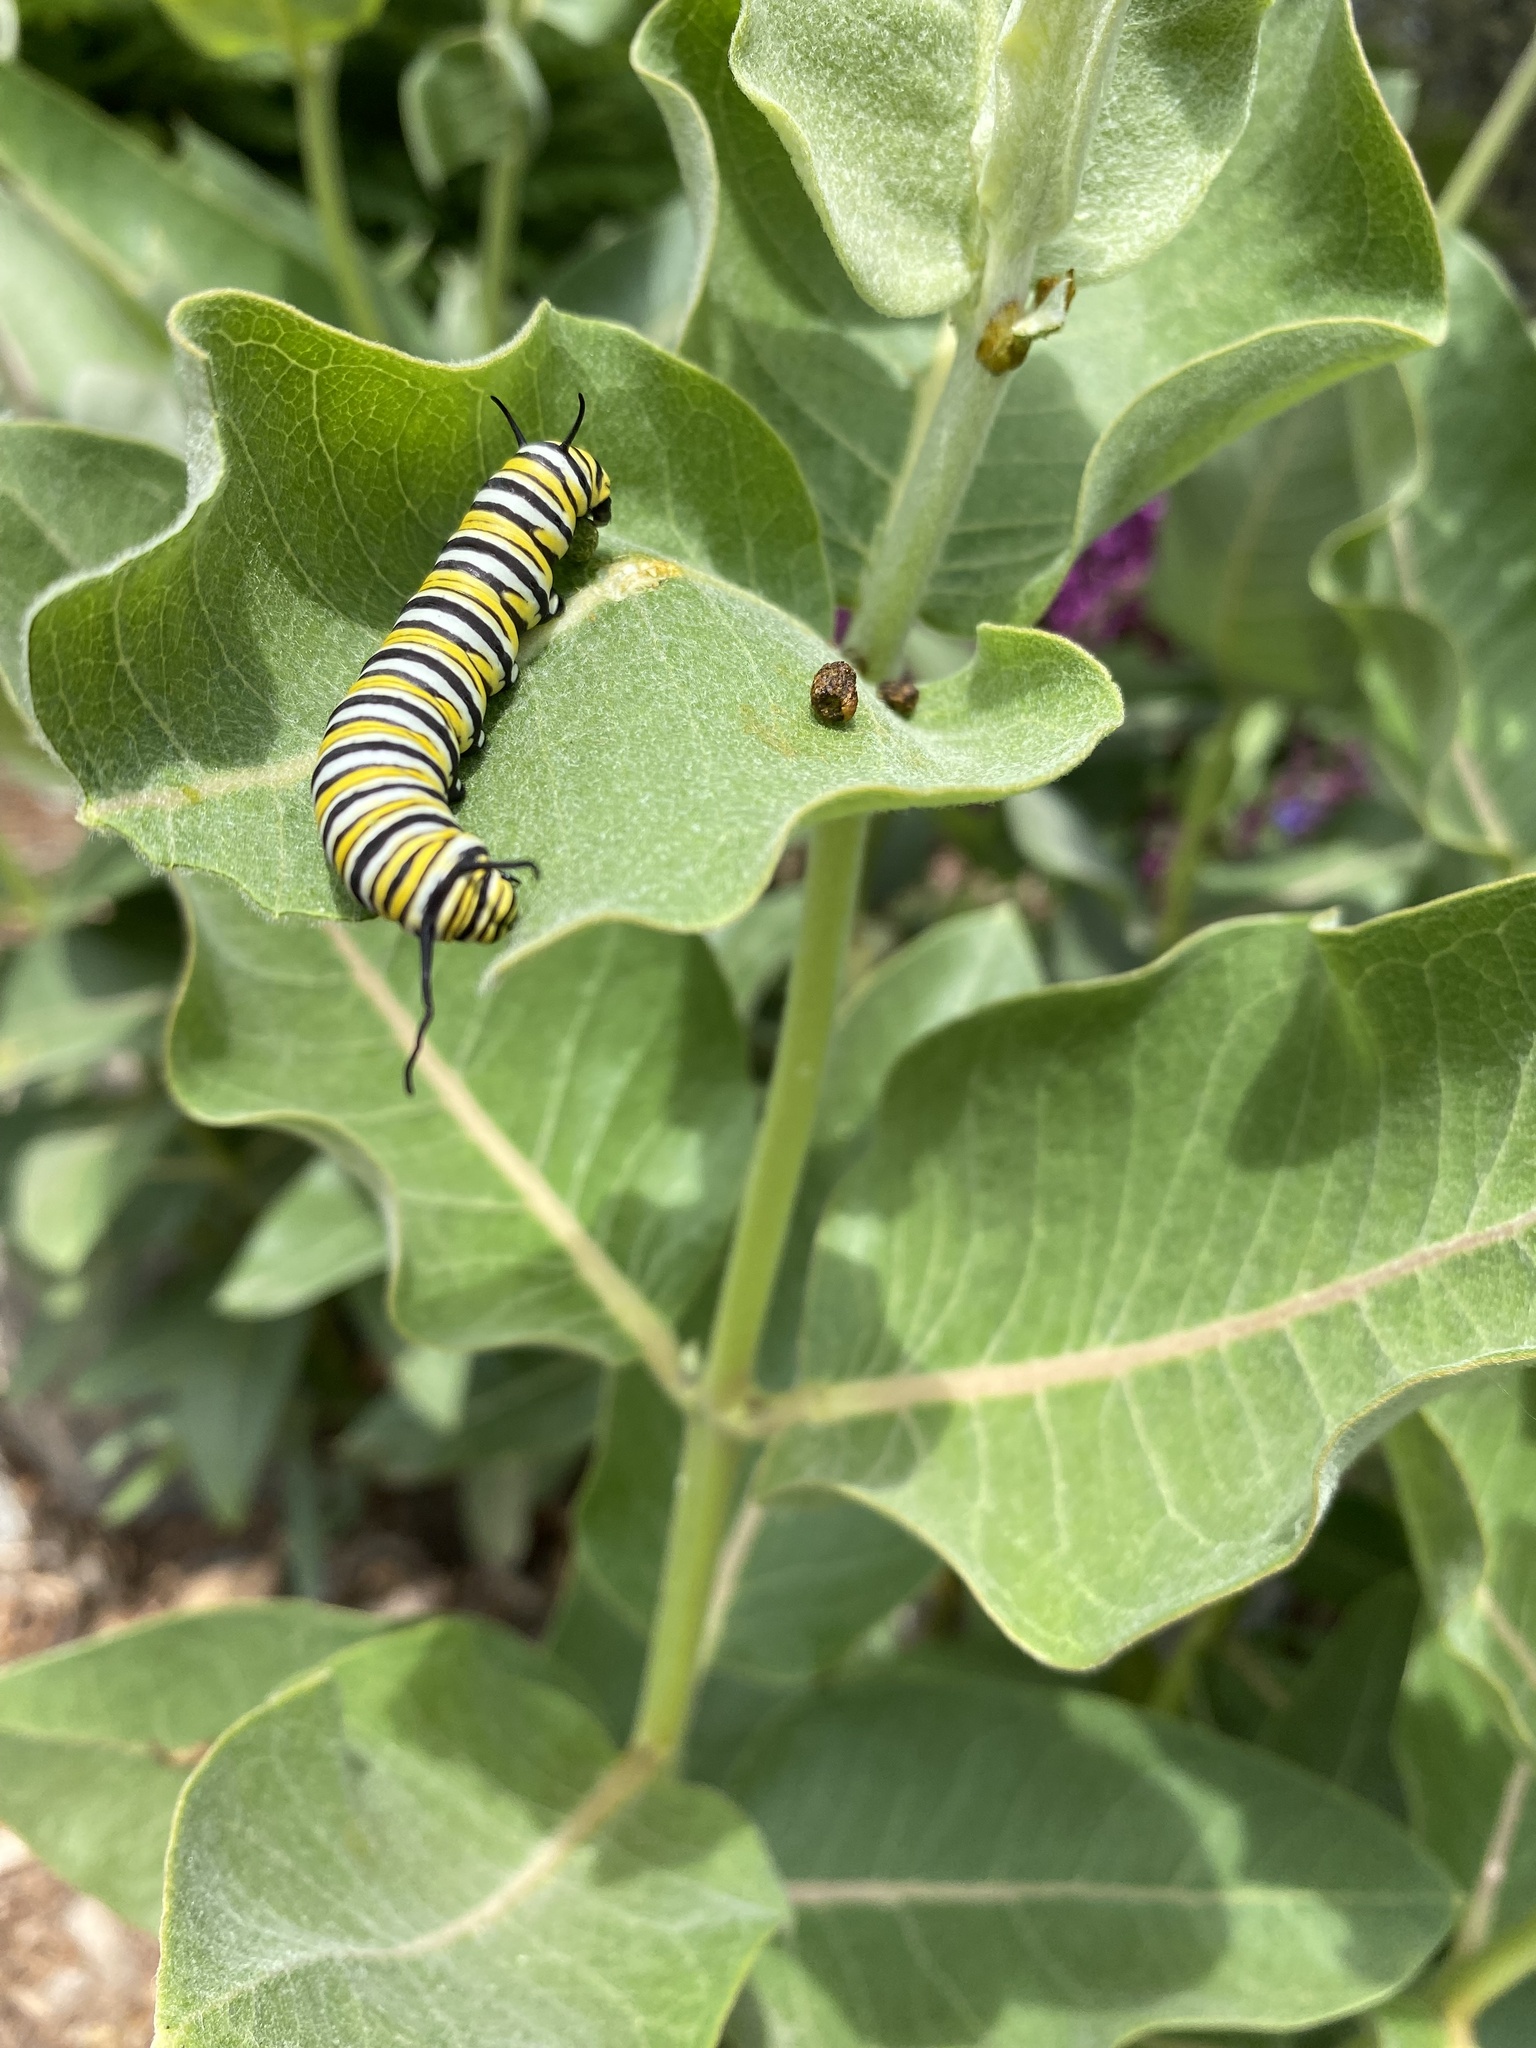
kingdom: Animalia
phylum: Arthropoda
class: Insecta
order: Lepidoptera
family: Nymphalidae
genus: Danaus
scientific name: Danaus plexippus
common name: Monarch
